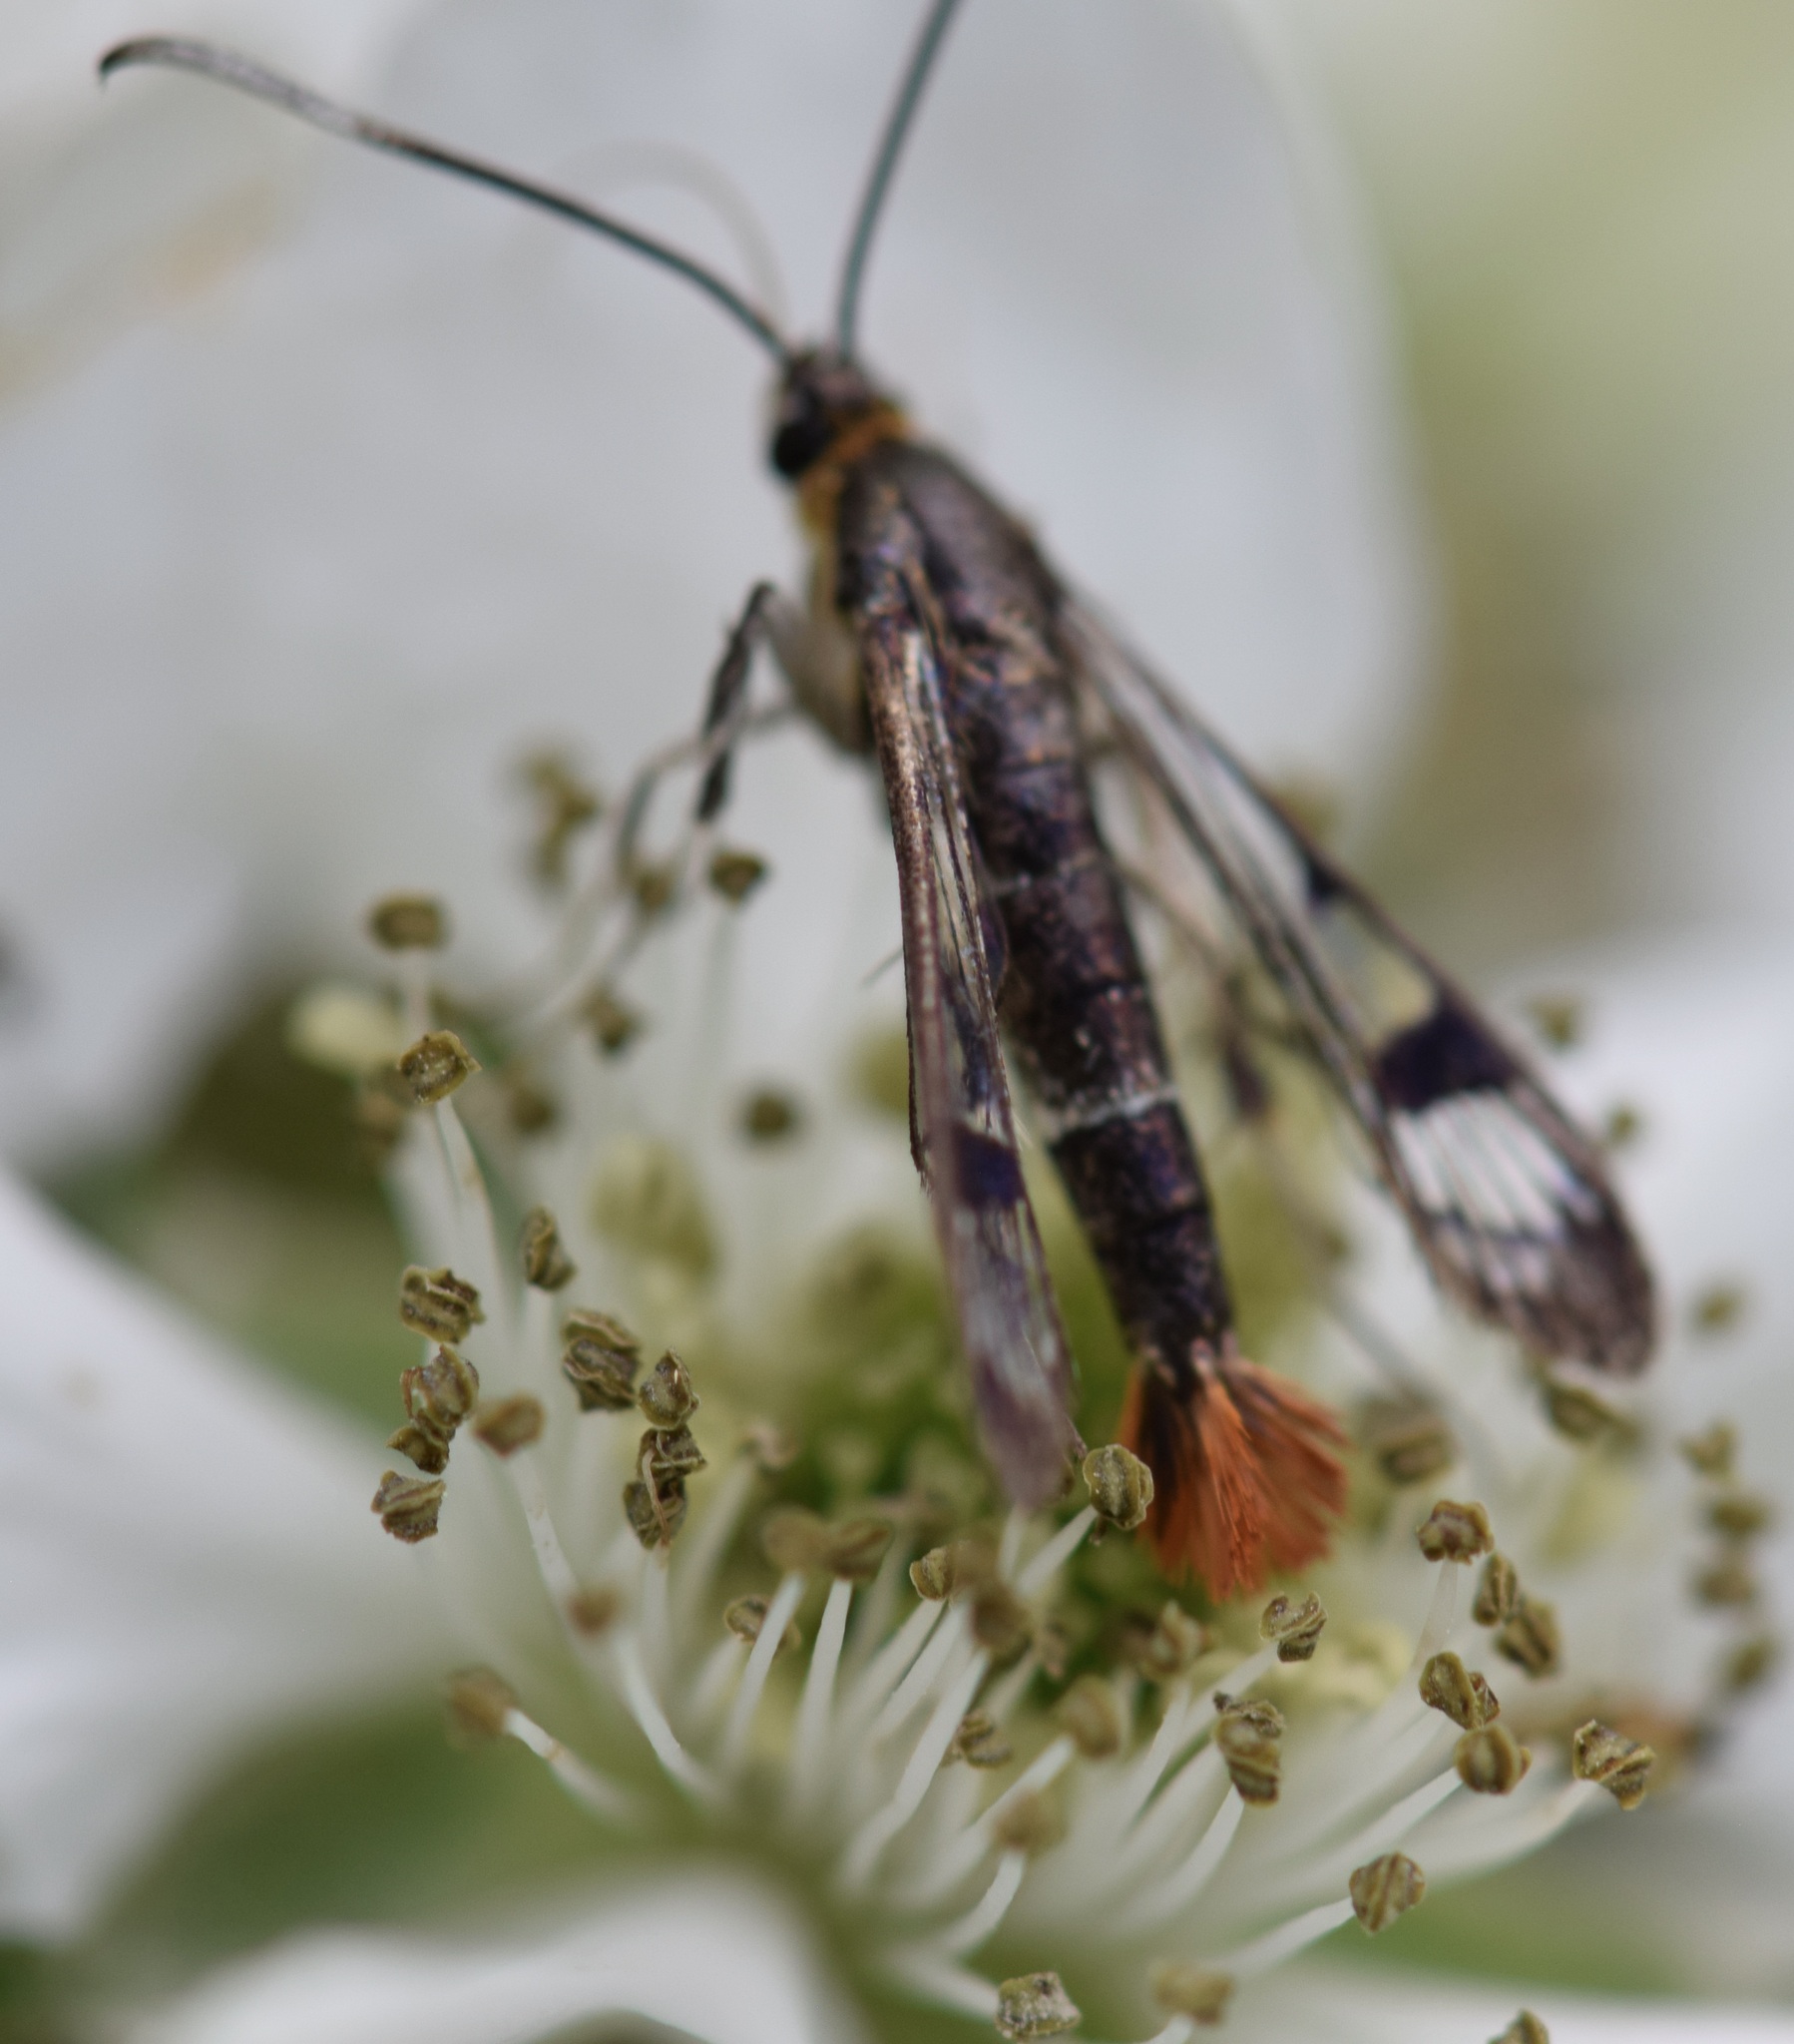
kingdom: Animalia
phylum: Arthropoda
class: Insecta
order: Lepidoptera
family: Sesiidae
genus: Synanthedon
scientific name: Synanthedon acerrubri
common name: Maple clearwing moth
